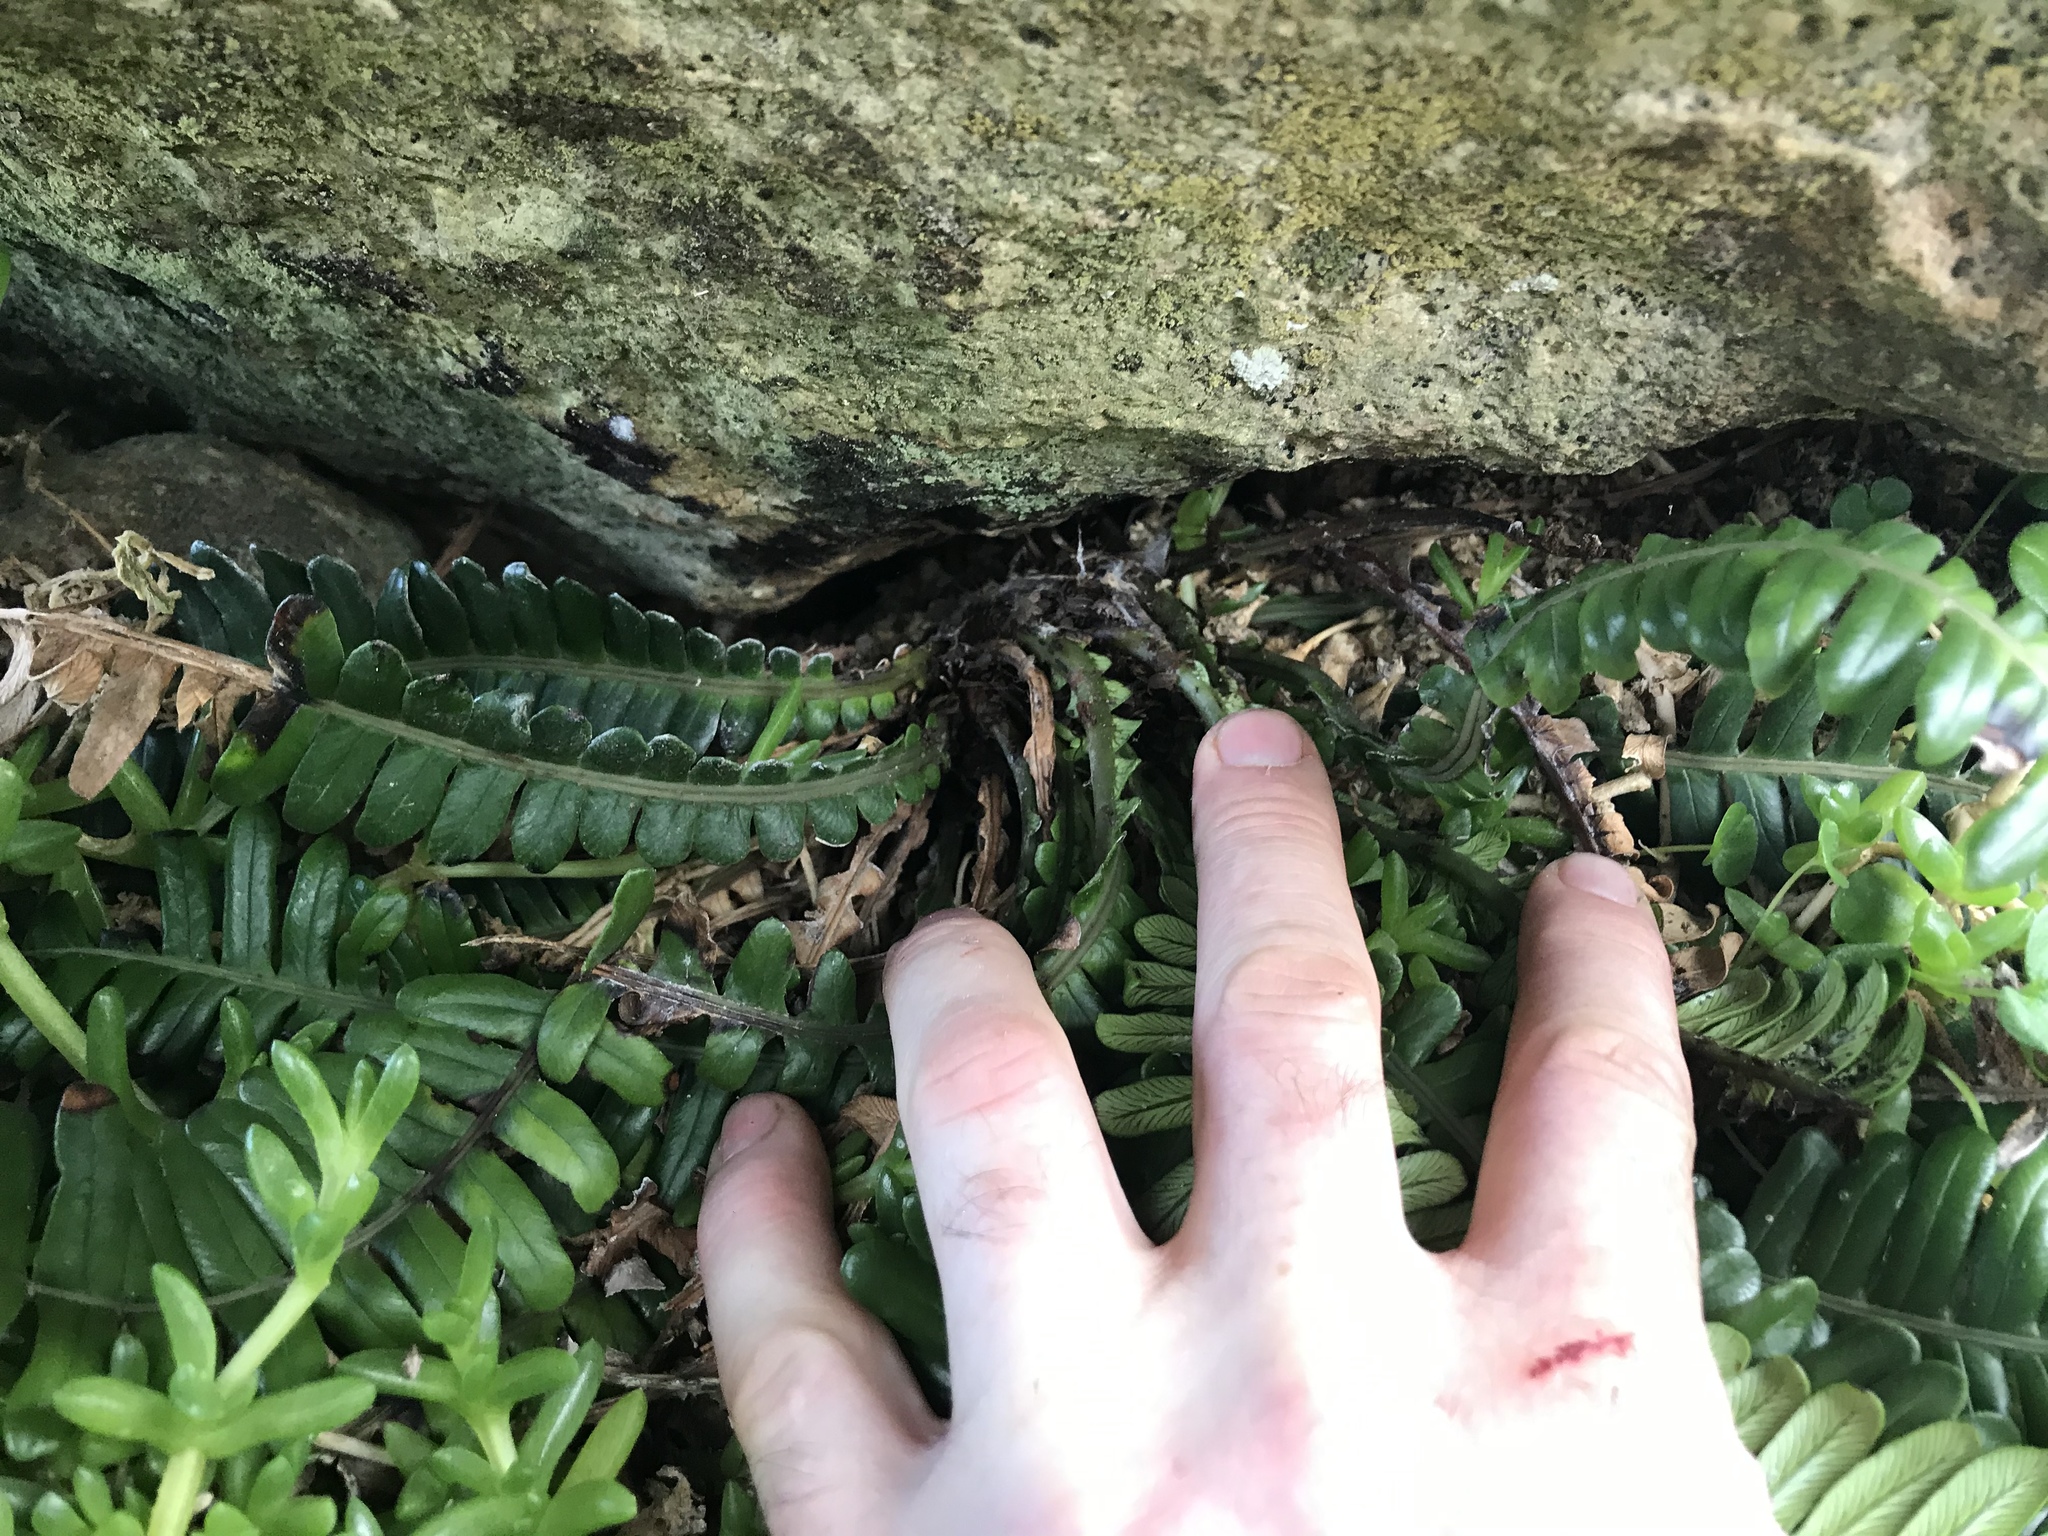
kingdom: Plantae
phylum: Tracheophyta
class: Polypodiopsida
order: Polypodiales
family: Blechnaceae
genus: Austroblechnum
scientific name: Austroblechnum durum
